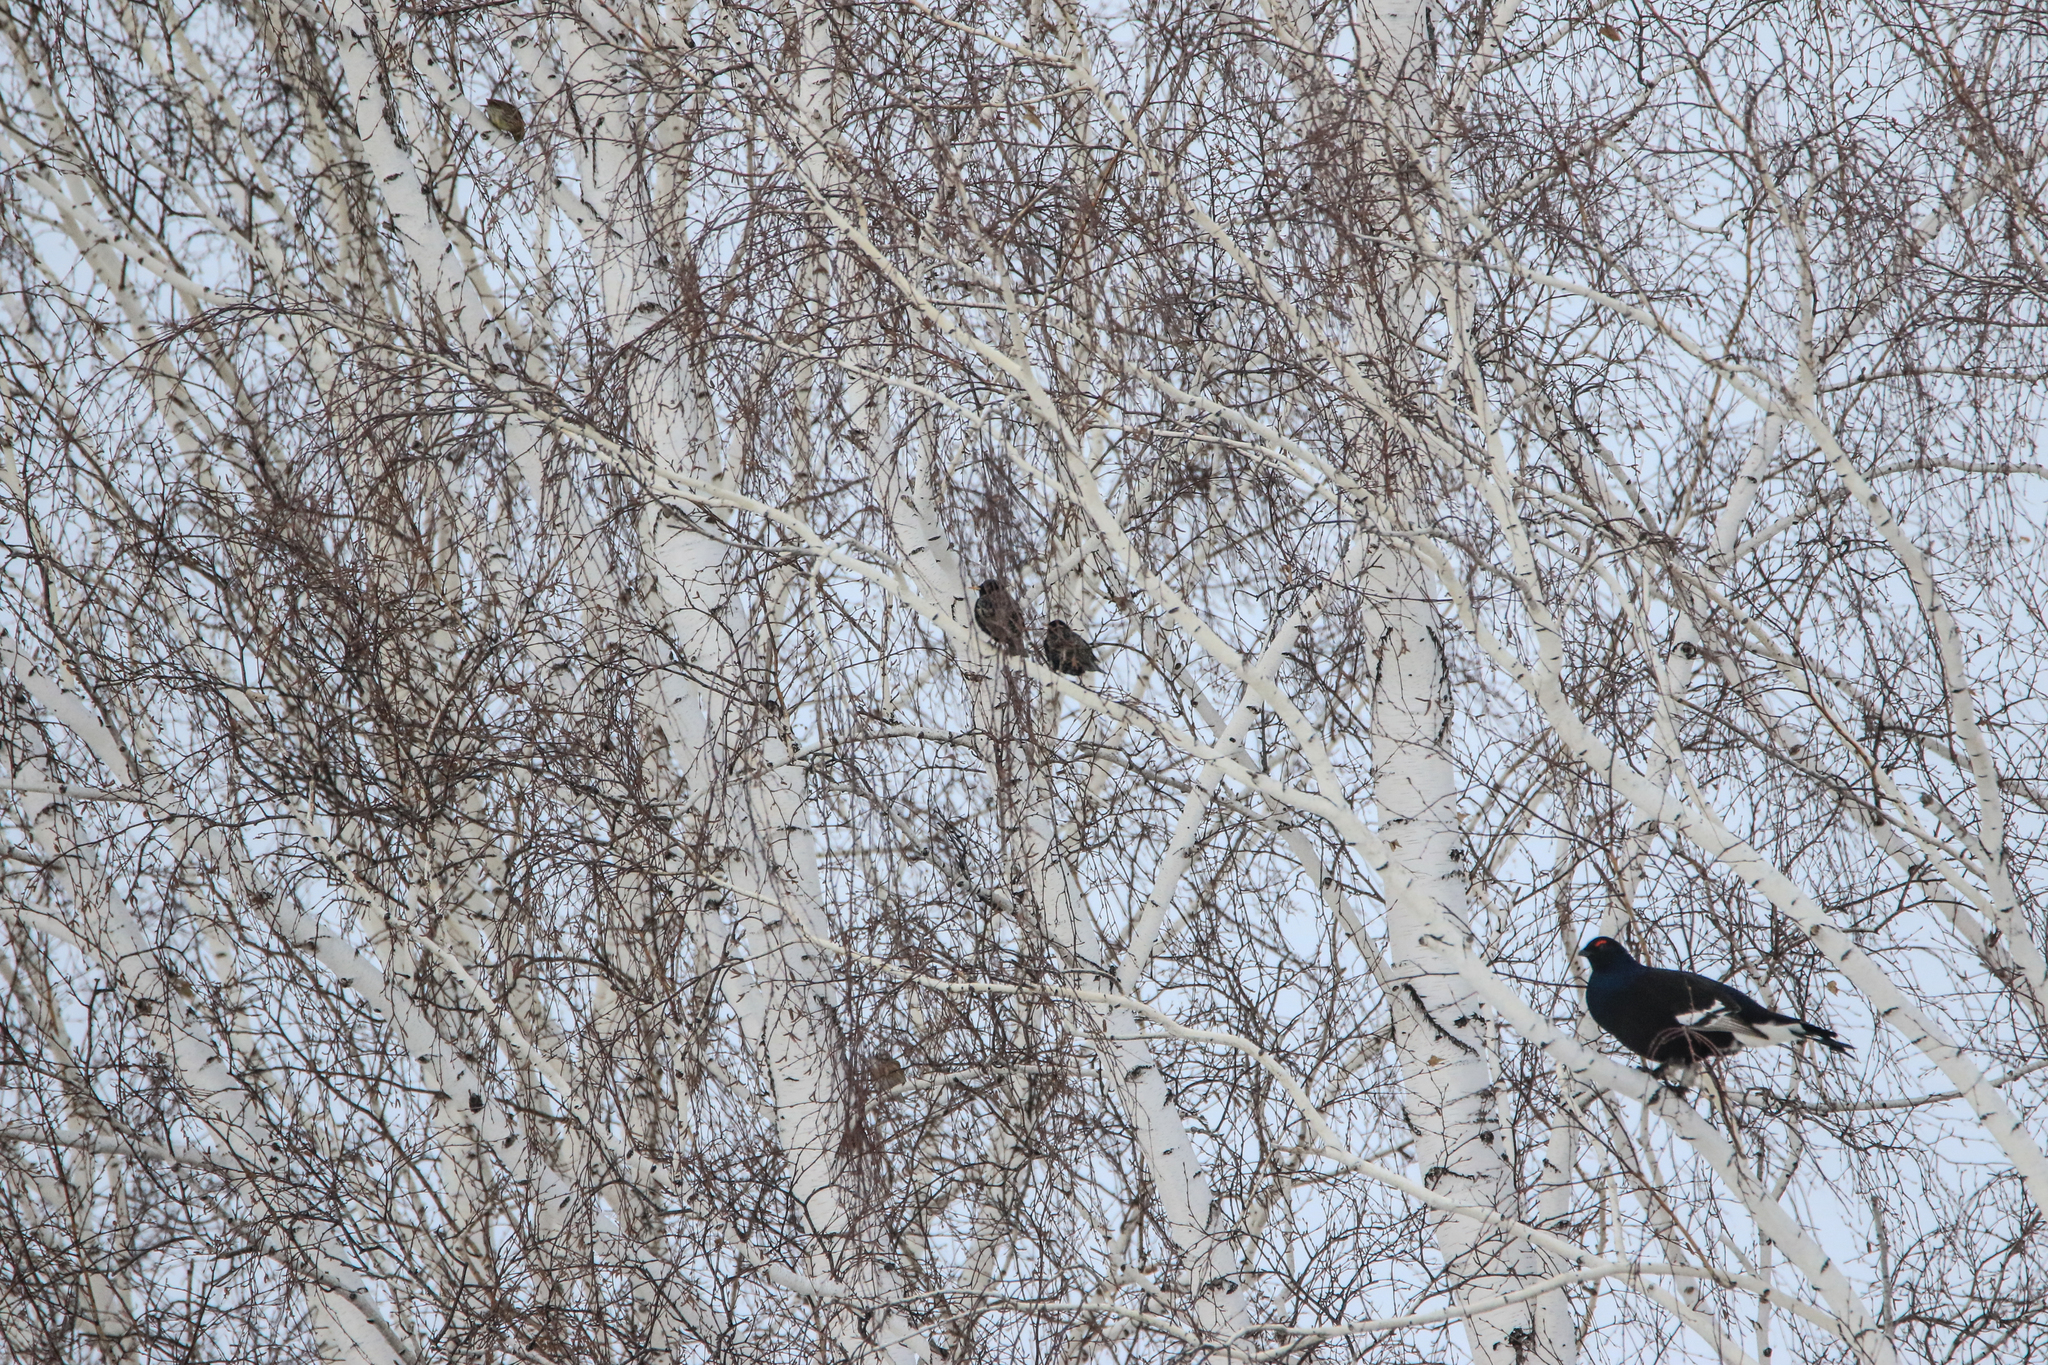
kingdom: Animalia
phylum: Chordata
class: Aves
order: Galliformes
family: Phasianidae
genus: Lyrurus
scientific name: Lyrurus tetrix
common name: Black grouse
